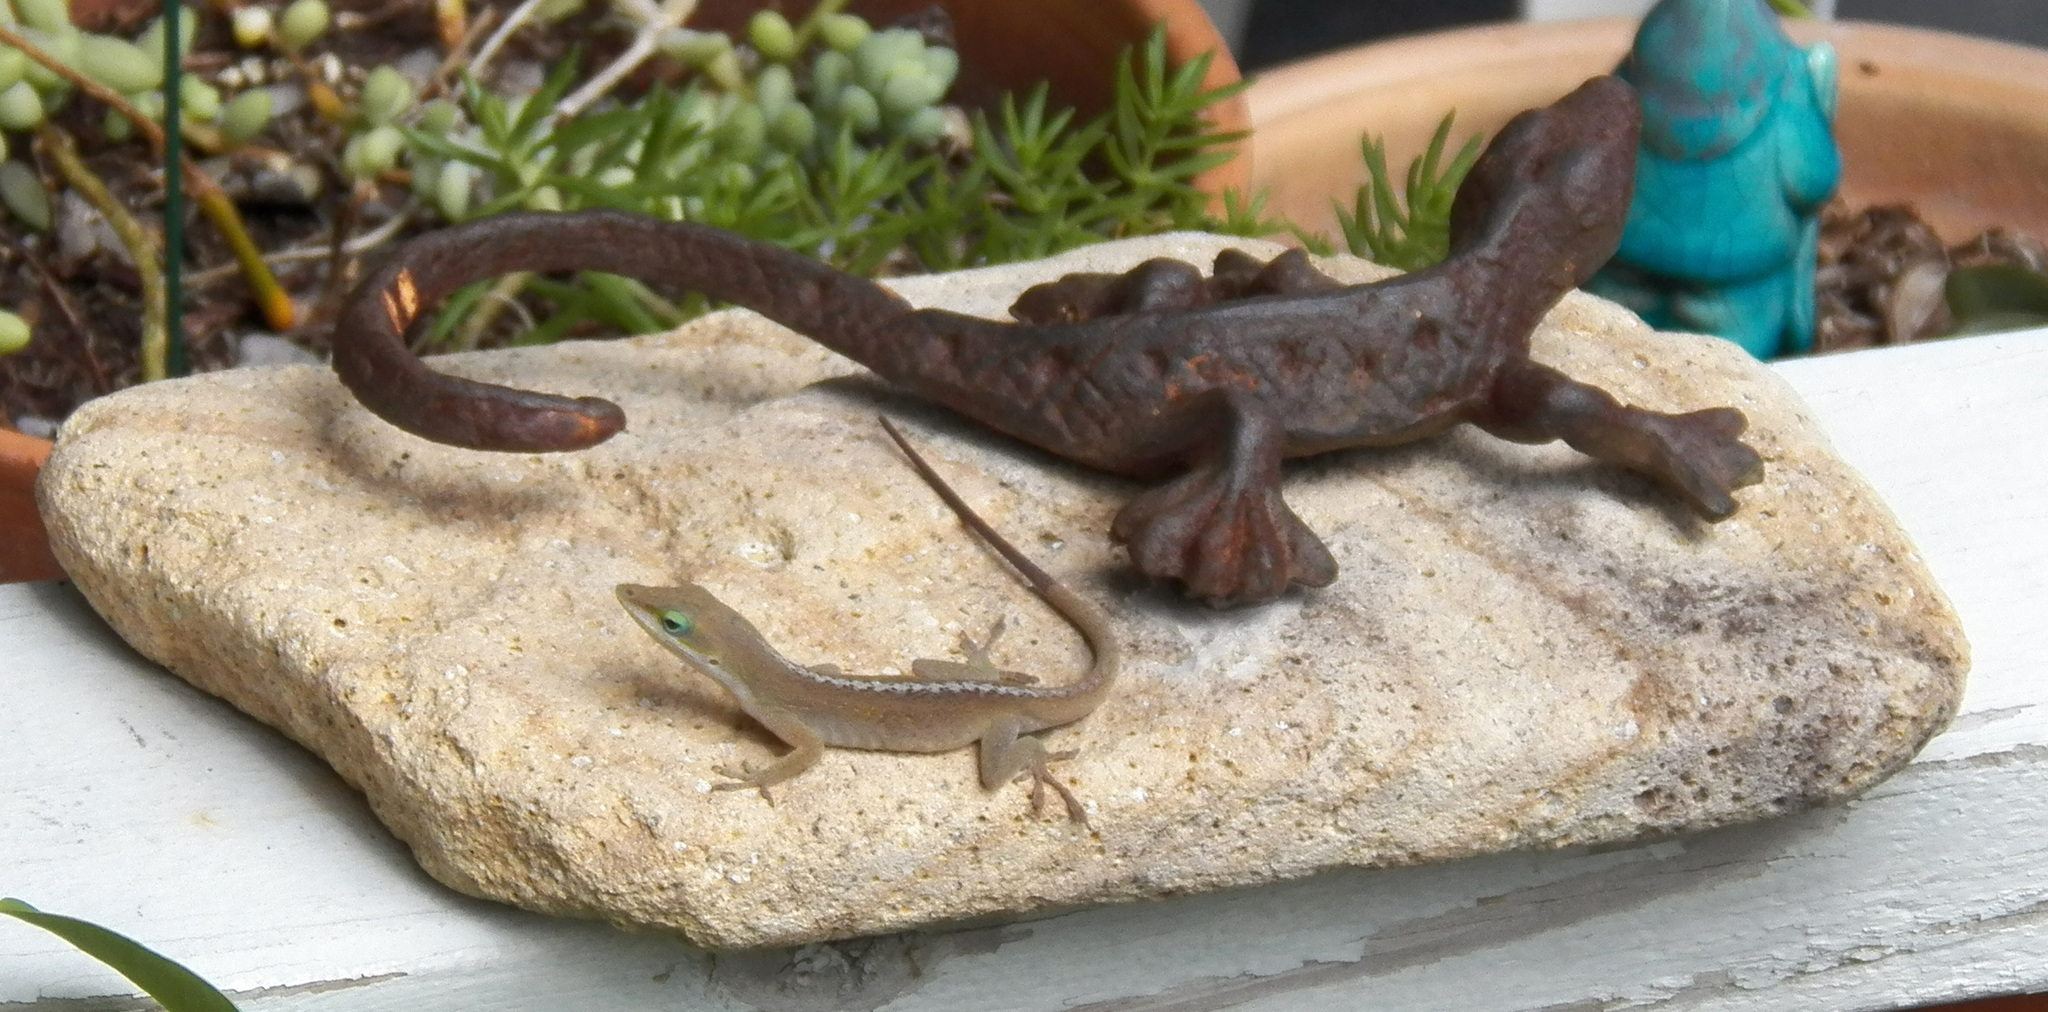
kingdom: Animalia
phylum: Chordata
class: Squamata
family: Dactyloidae
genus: Anolis
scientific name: Anolis carolinensis
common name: Green anole
